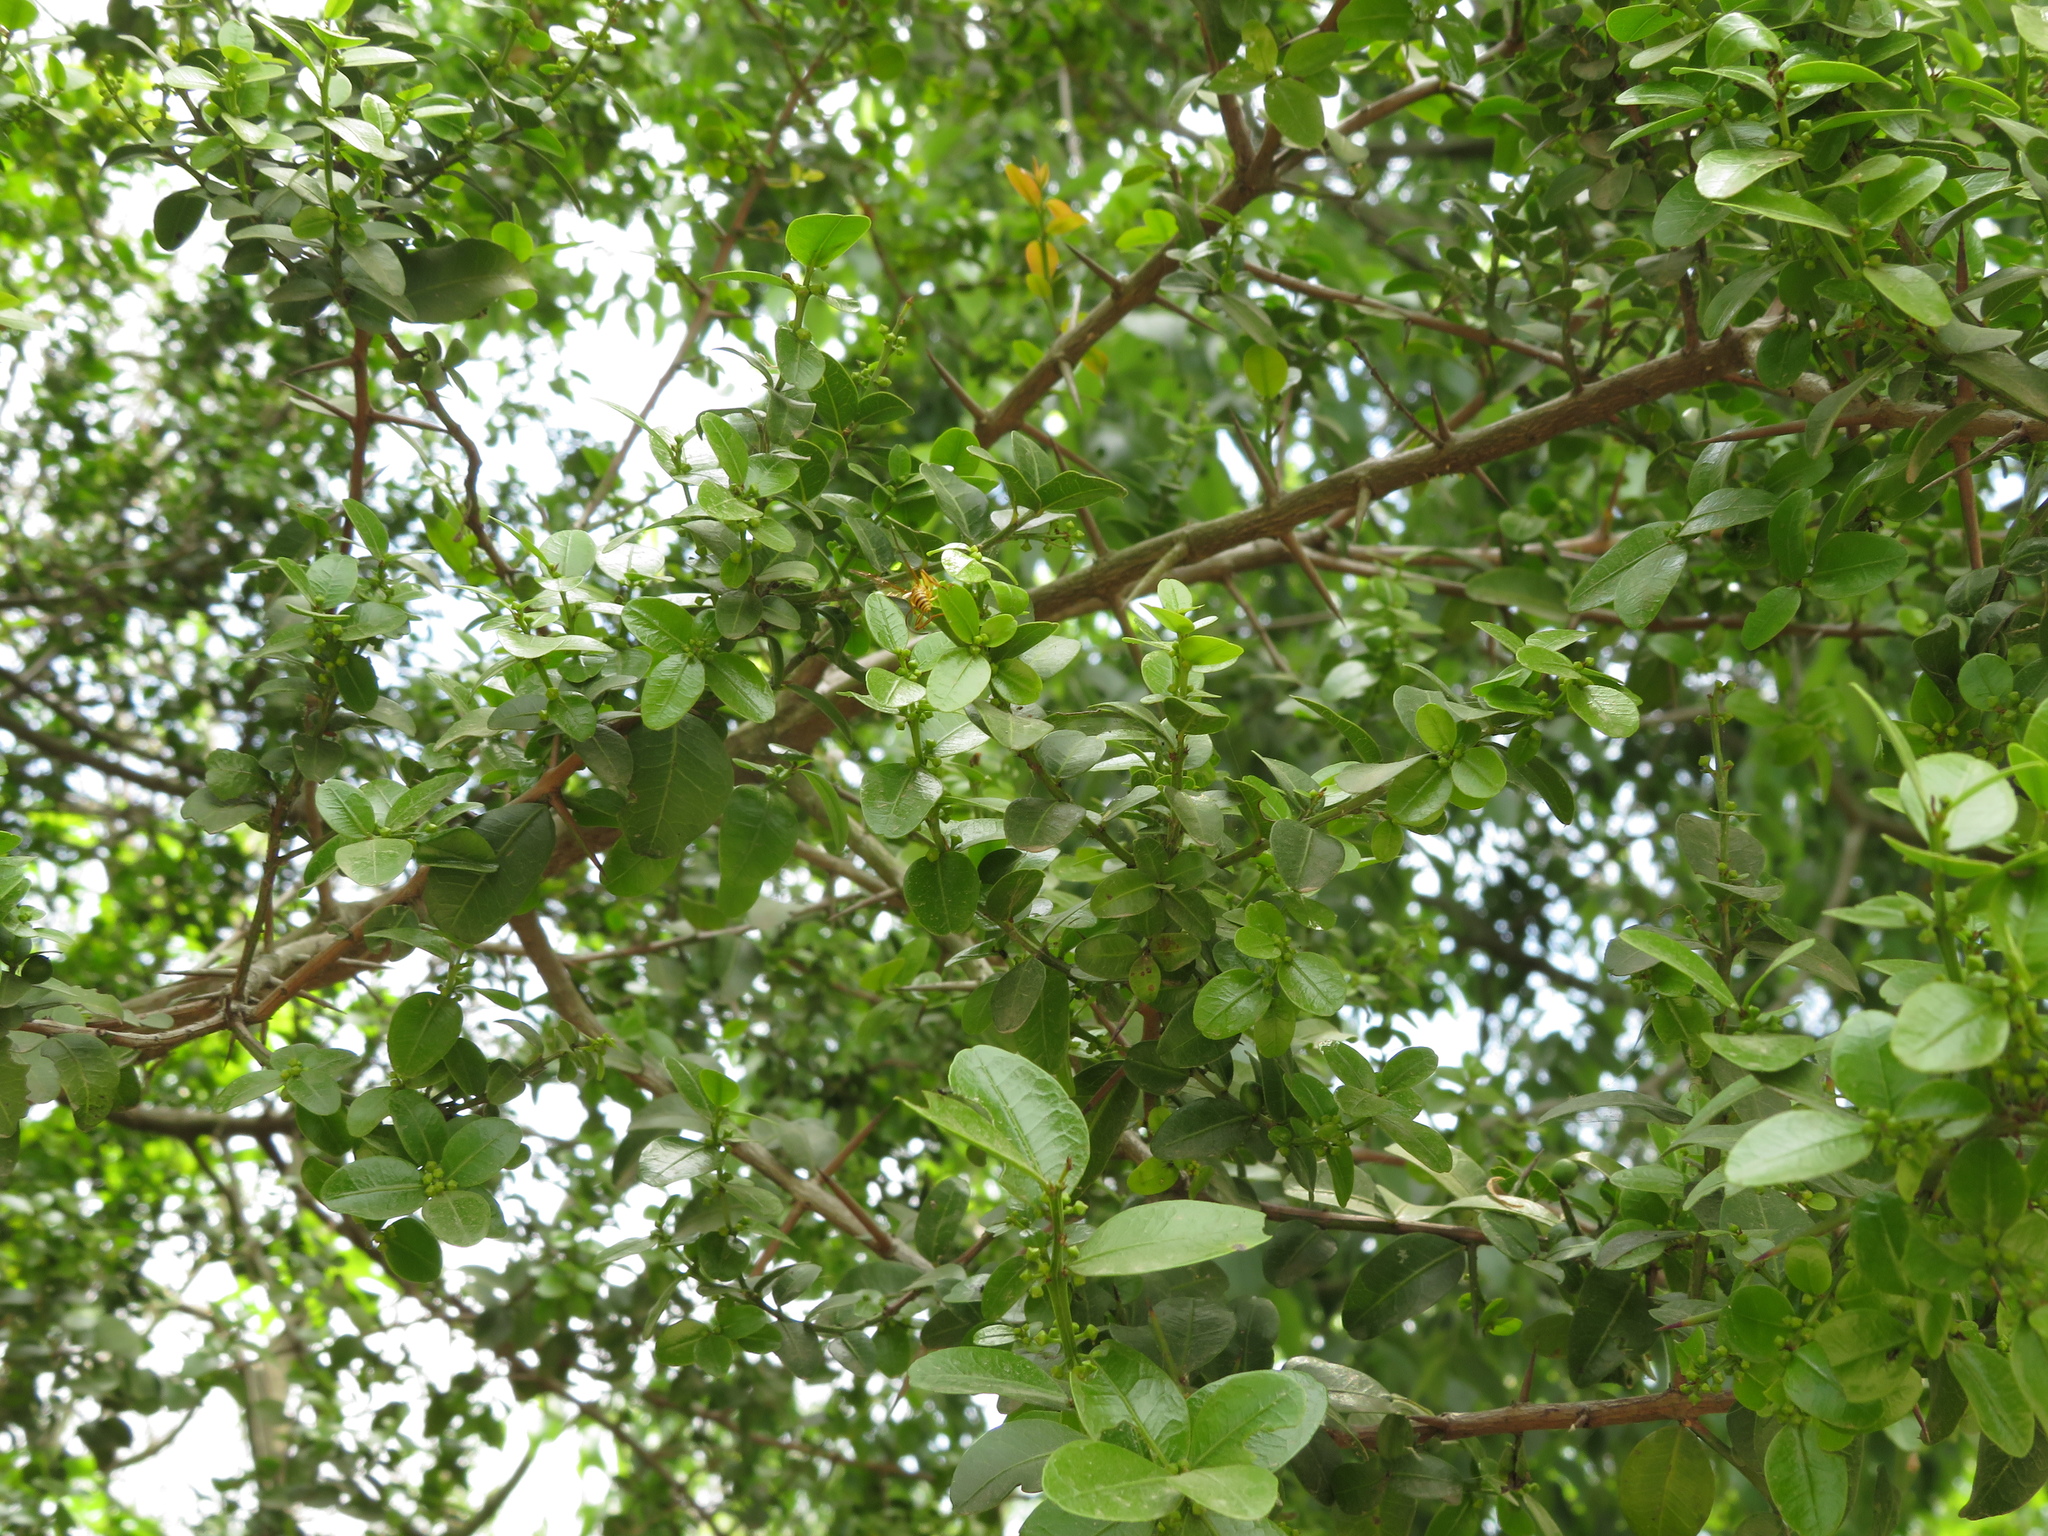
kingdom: Plantae
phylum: Tracheophyta
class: Magnoliopsida
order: Rosales
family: Rhamnaceae
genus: Scutia
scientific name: Scutia buxifolia
